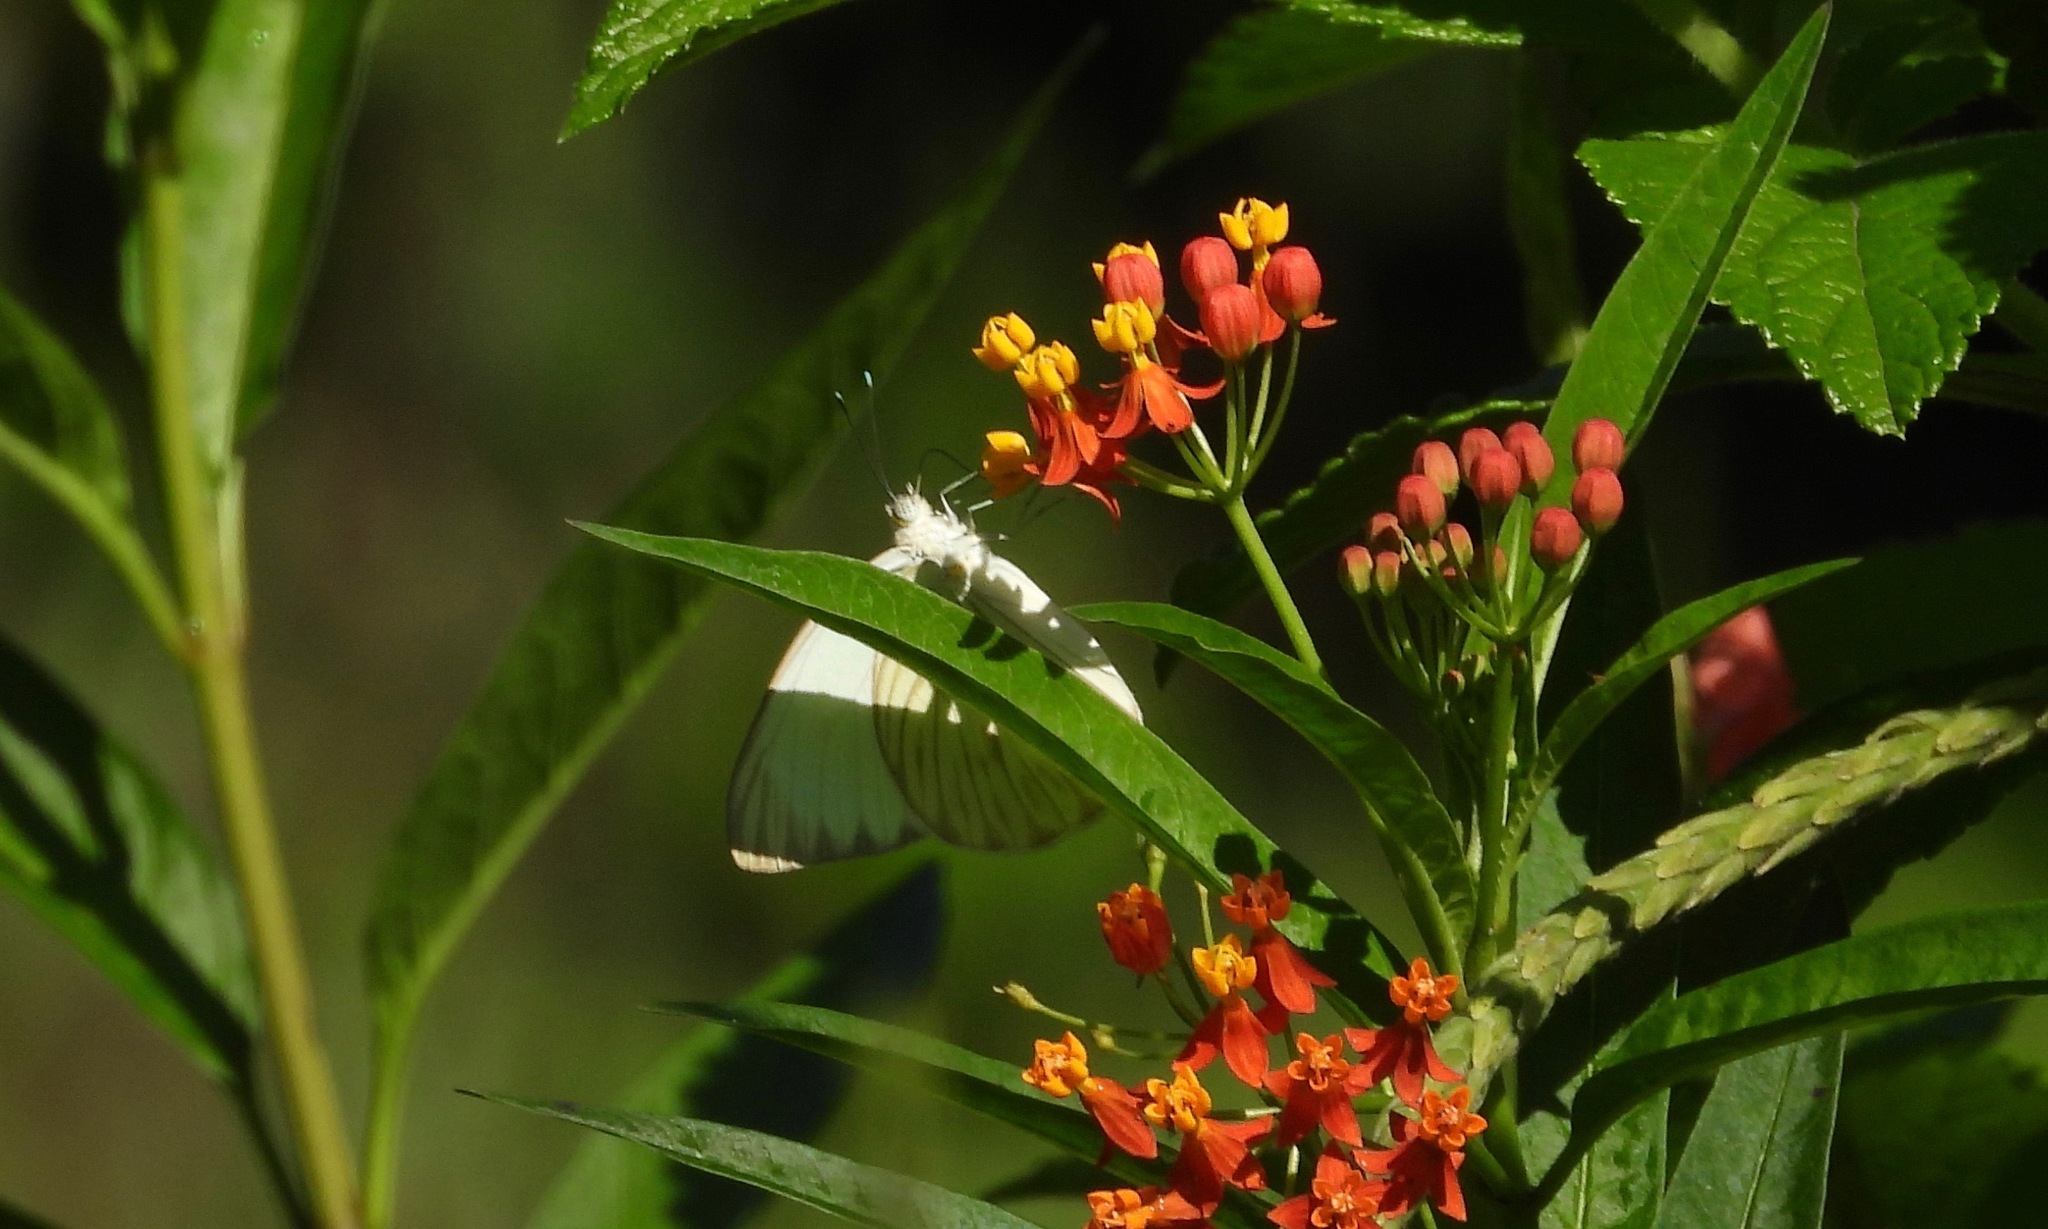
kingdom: Animalia
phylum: Arthropoda
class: Insecta
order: Lepidoptera
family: Pieridae
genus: Ascia
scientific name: Ascia monuste
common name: Great southern white
